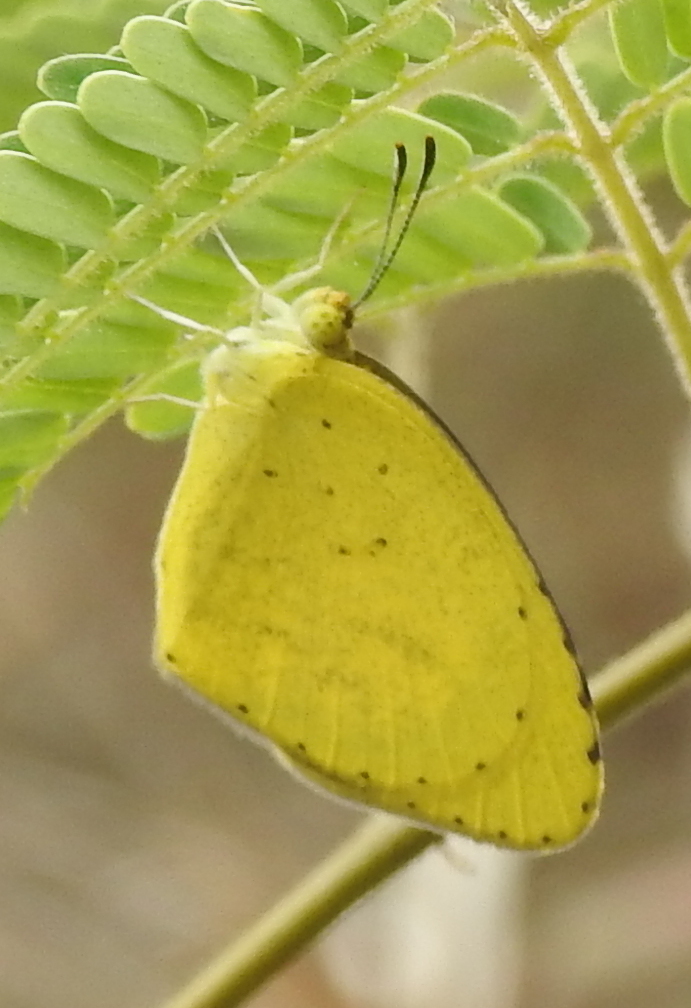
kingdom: Animalia
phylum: Arthropoda
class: Insecta
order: Lepidoptera
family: Pieridae
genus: Eurema
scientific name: Eurema brigitta
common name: Small grass yellow
